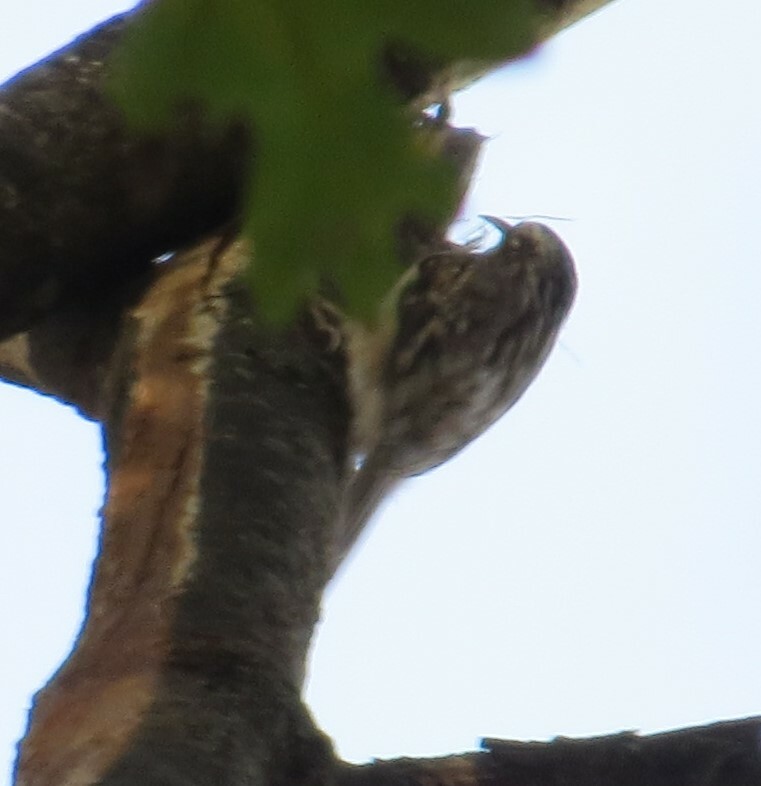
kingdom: Animalia
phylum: Chordata
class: Aves
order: Passeriformes
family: Certhiidae
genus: Certhia
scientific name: Certhia americana
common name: Brown creeper
